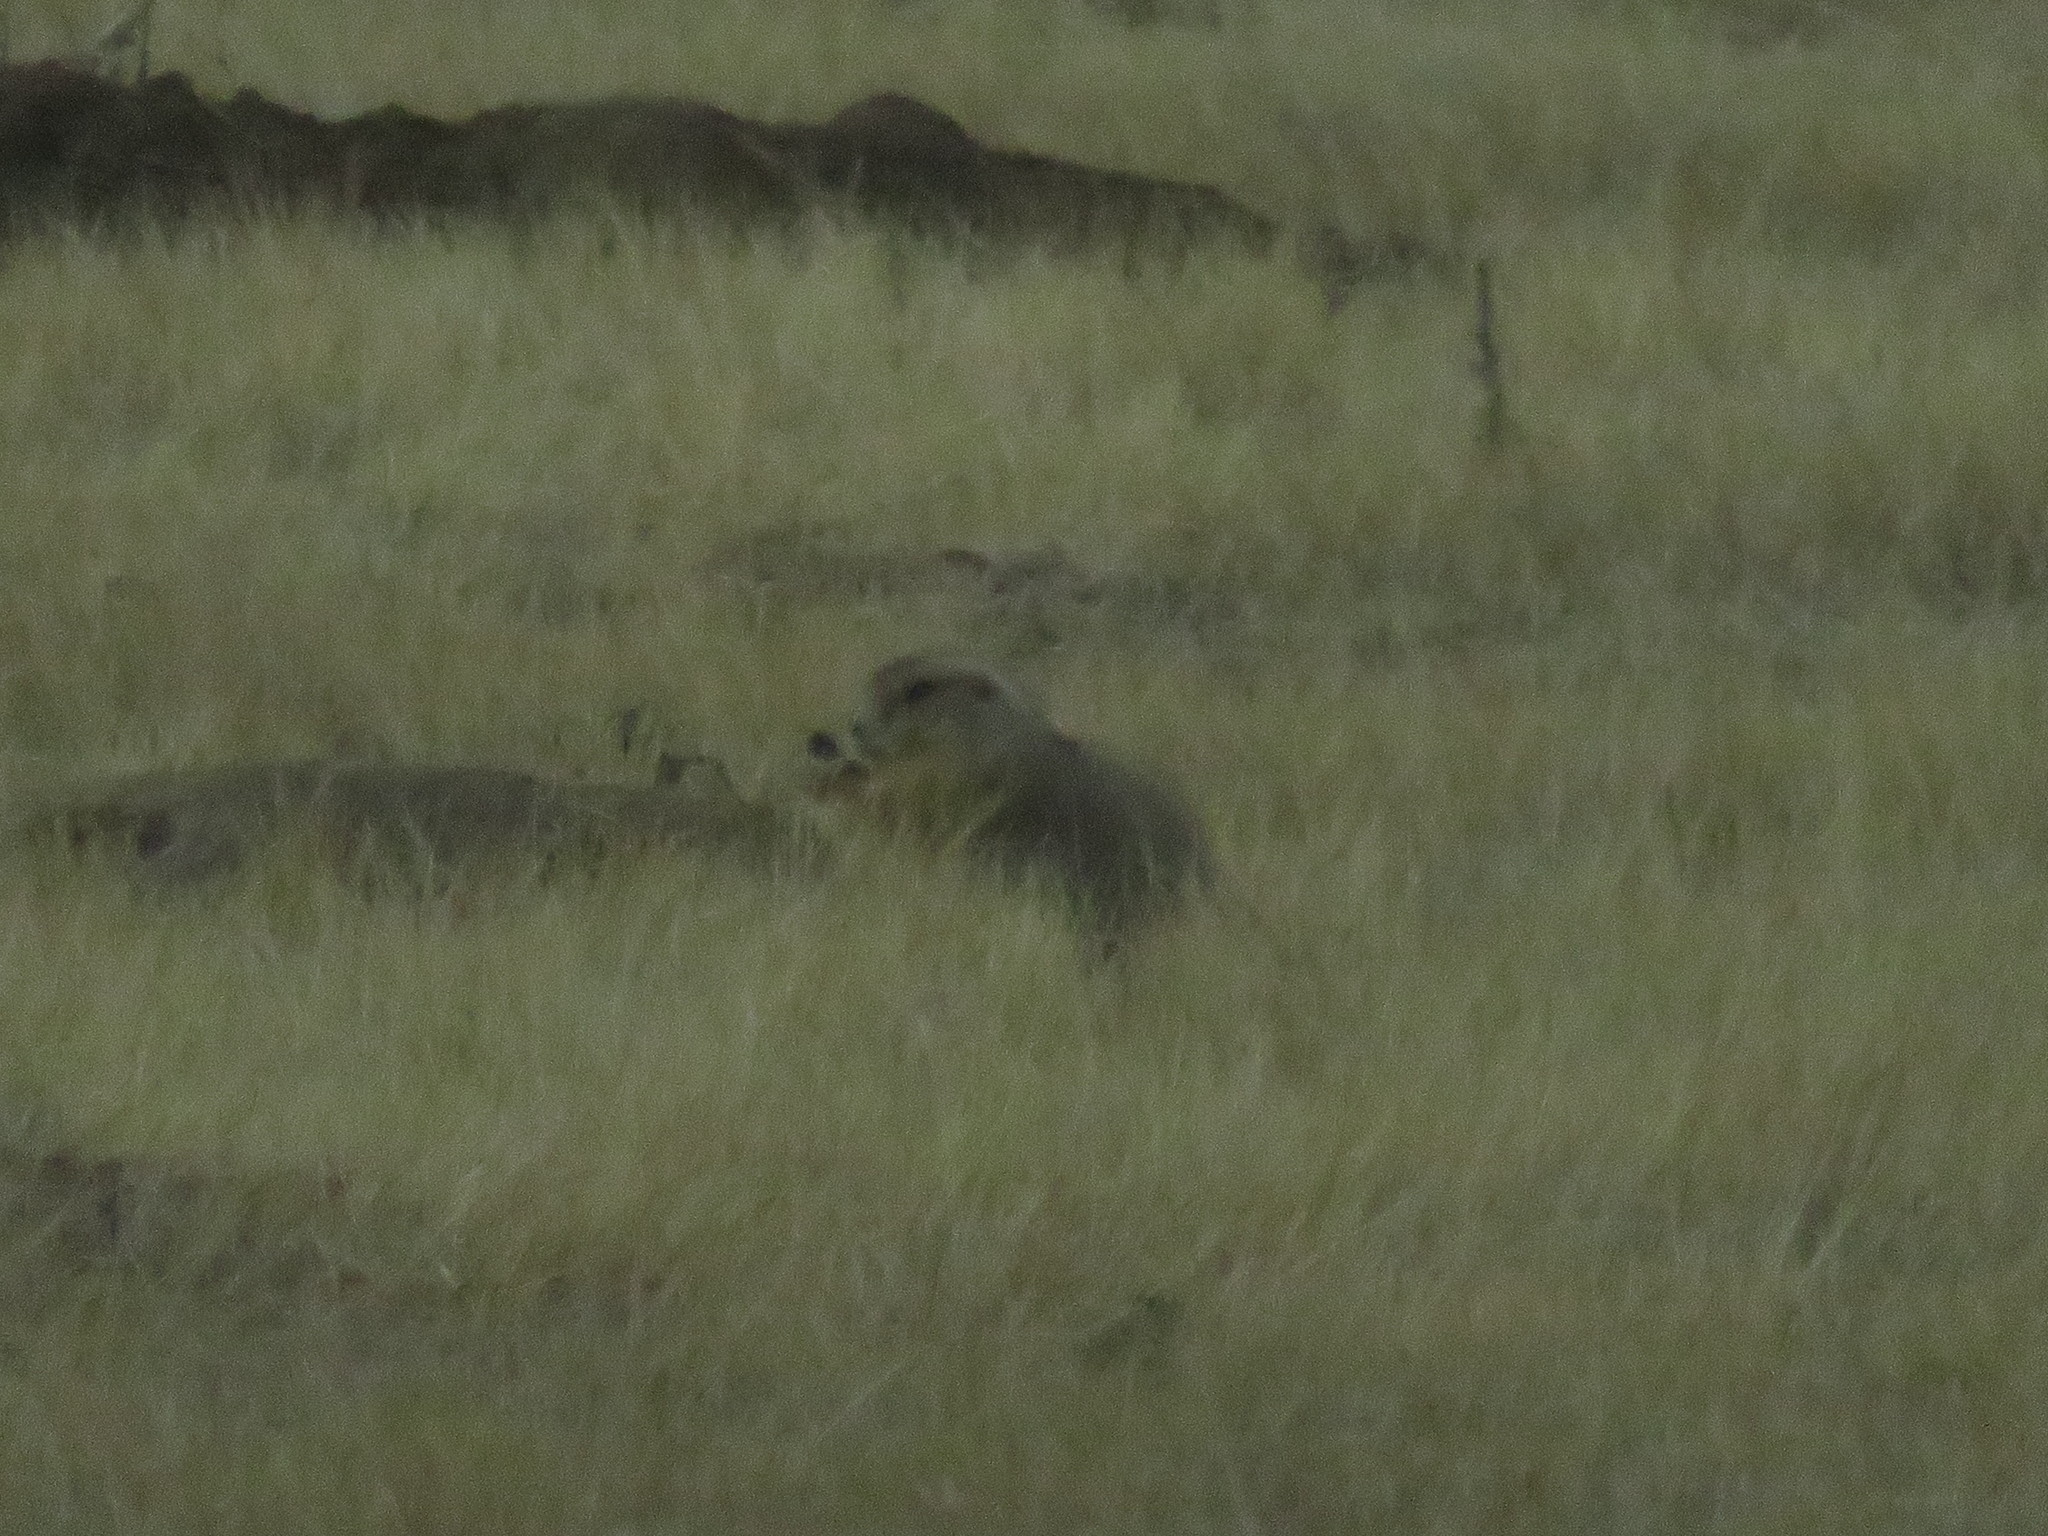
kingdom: Animalia
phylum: Chordata
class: Mammalia
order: Rodentia
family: Sciuridae
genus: Cynomys
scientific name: Cynomys ludovicianus
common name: Black-tailed prairie dog
